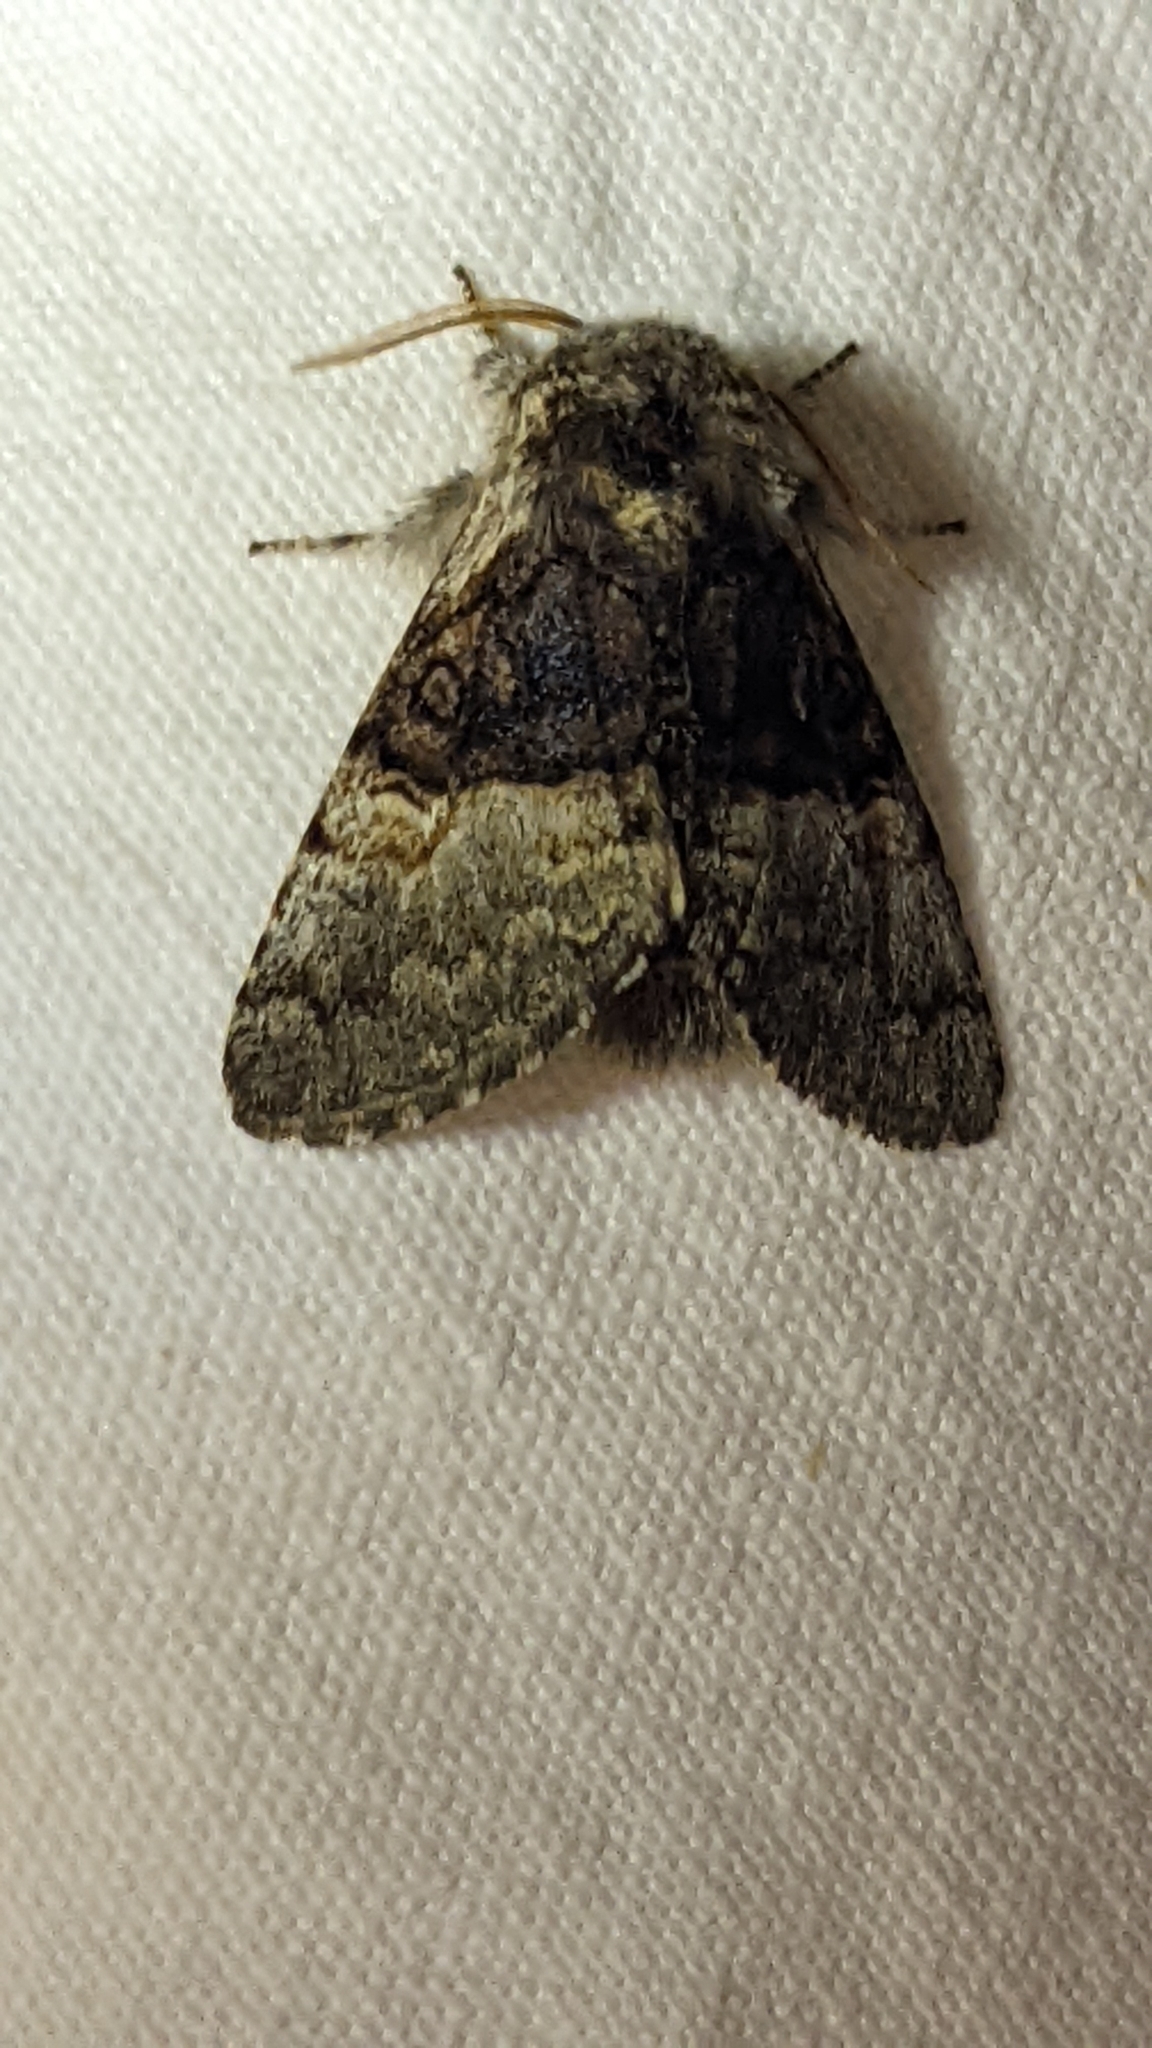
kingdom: Animalia
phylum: Arthropoda
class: Insecta
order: Lepidoptera
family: Noctuidae
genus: Colocasia
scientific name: Colocasia coryli
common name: Nut-tree tussock
